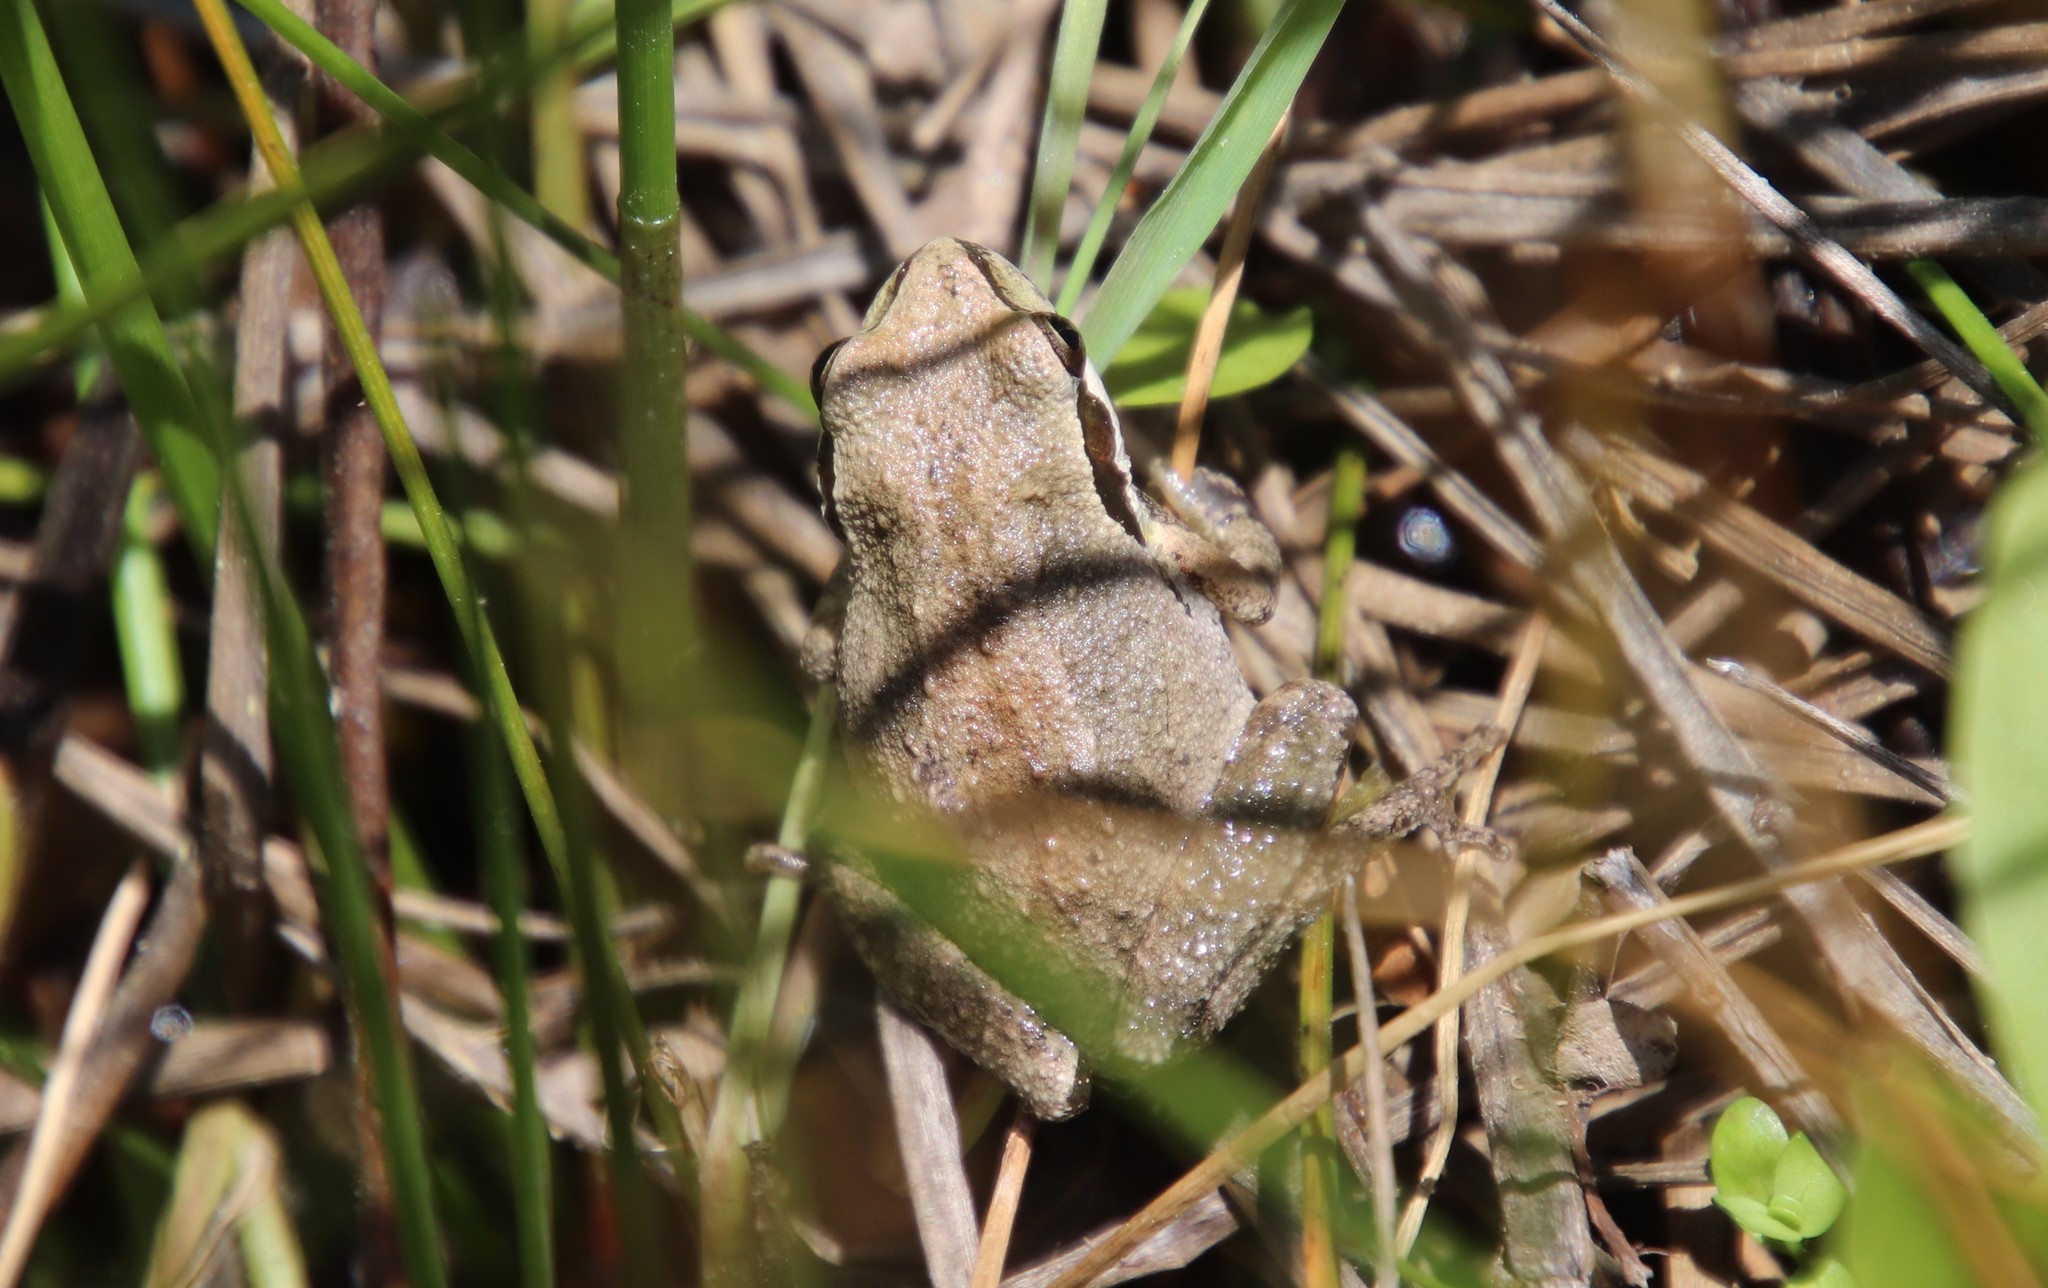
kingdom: Animalia
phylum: Chordata
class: Amphibia
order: Anura
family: Hylidae
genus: Pseudacris
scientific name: Pseudacris regilla
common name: Pacific chorus frog
